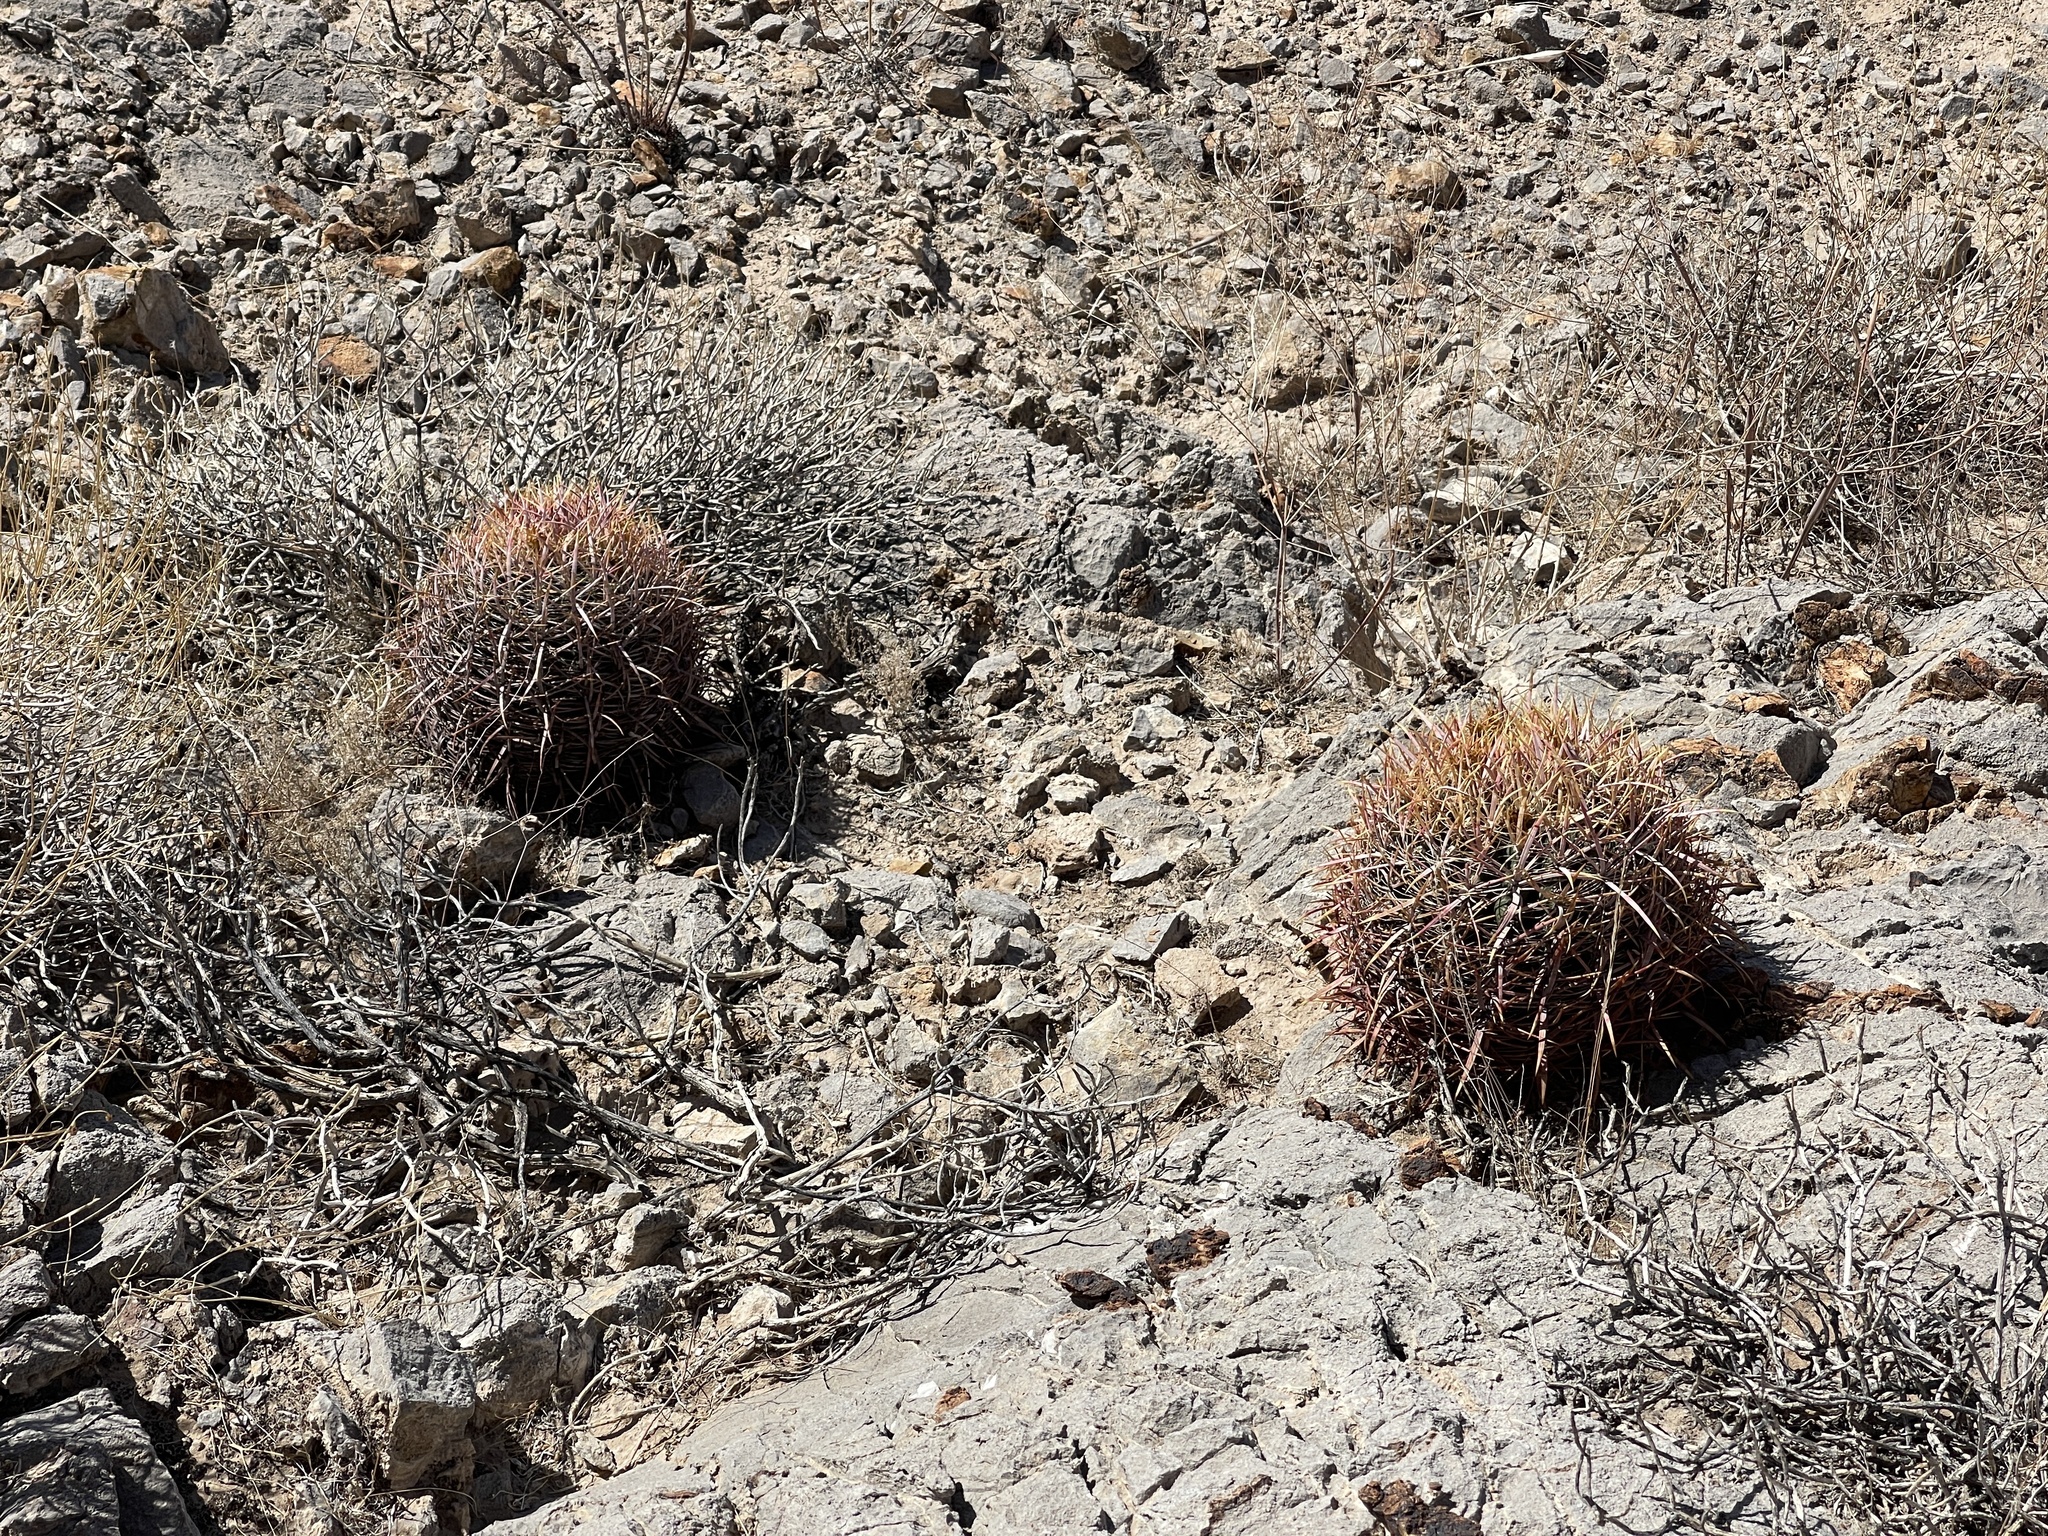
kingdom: Plantae
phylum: Tracheophyta
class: Magnoliopsida
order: Caryophyllales
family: Cactaceae
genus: Ferocactus
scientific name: Ferocactus cylindraceus
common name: California barrel cactus
